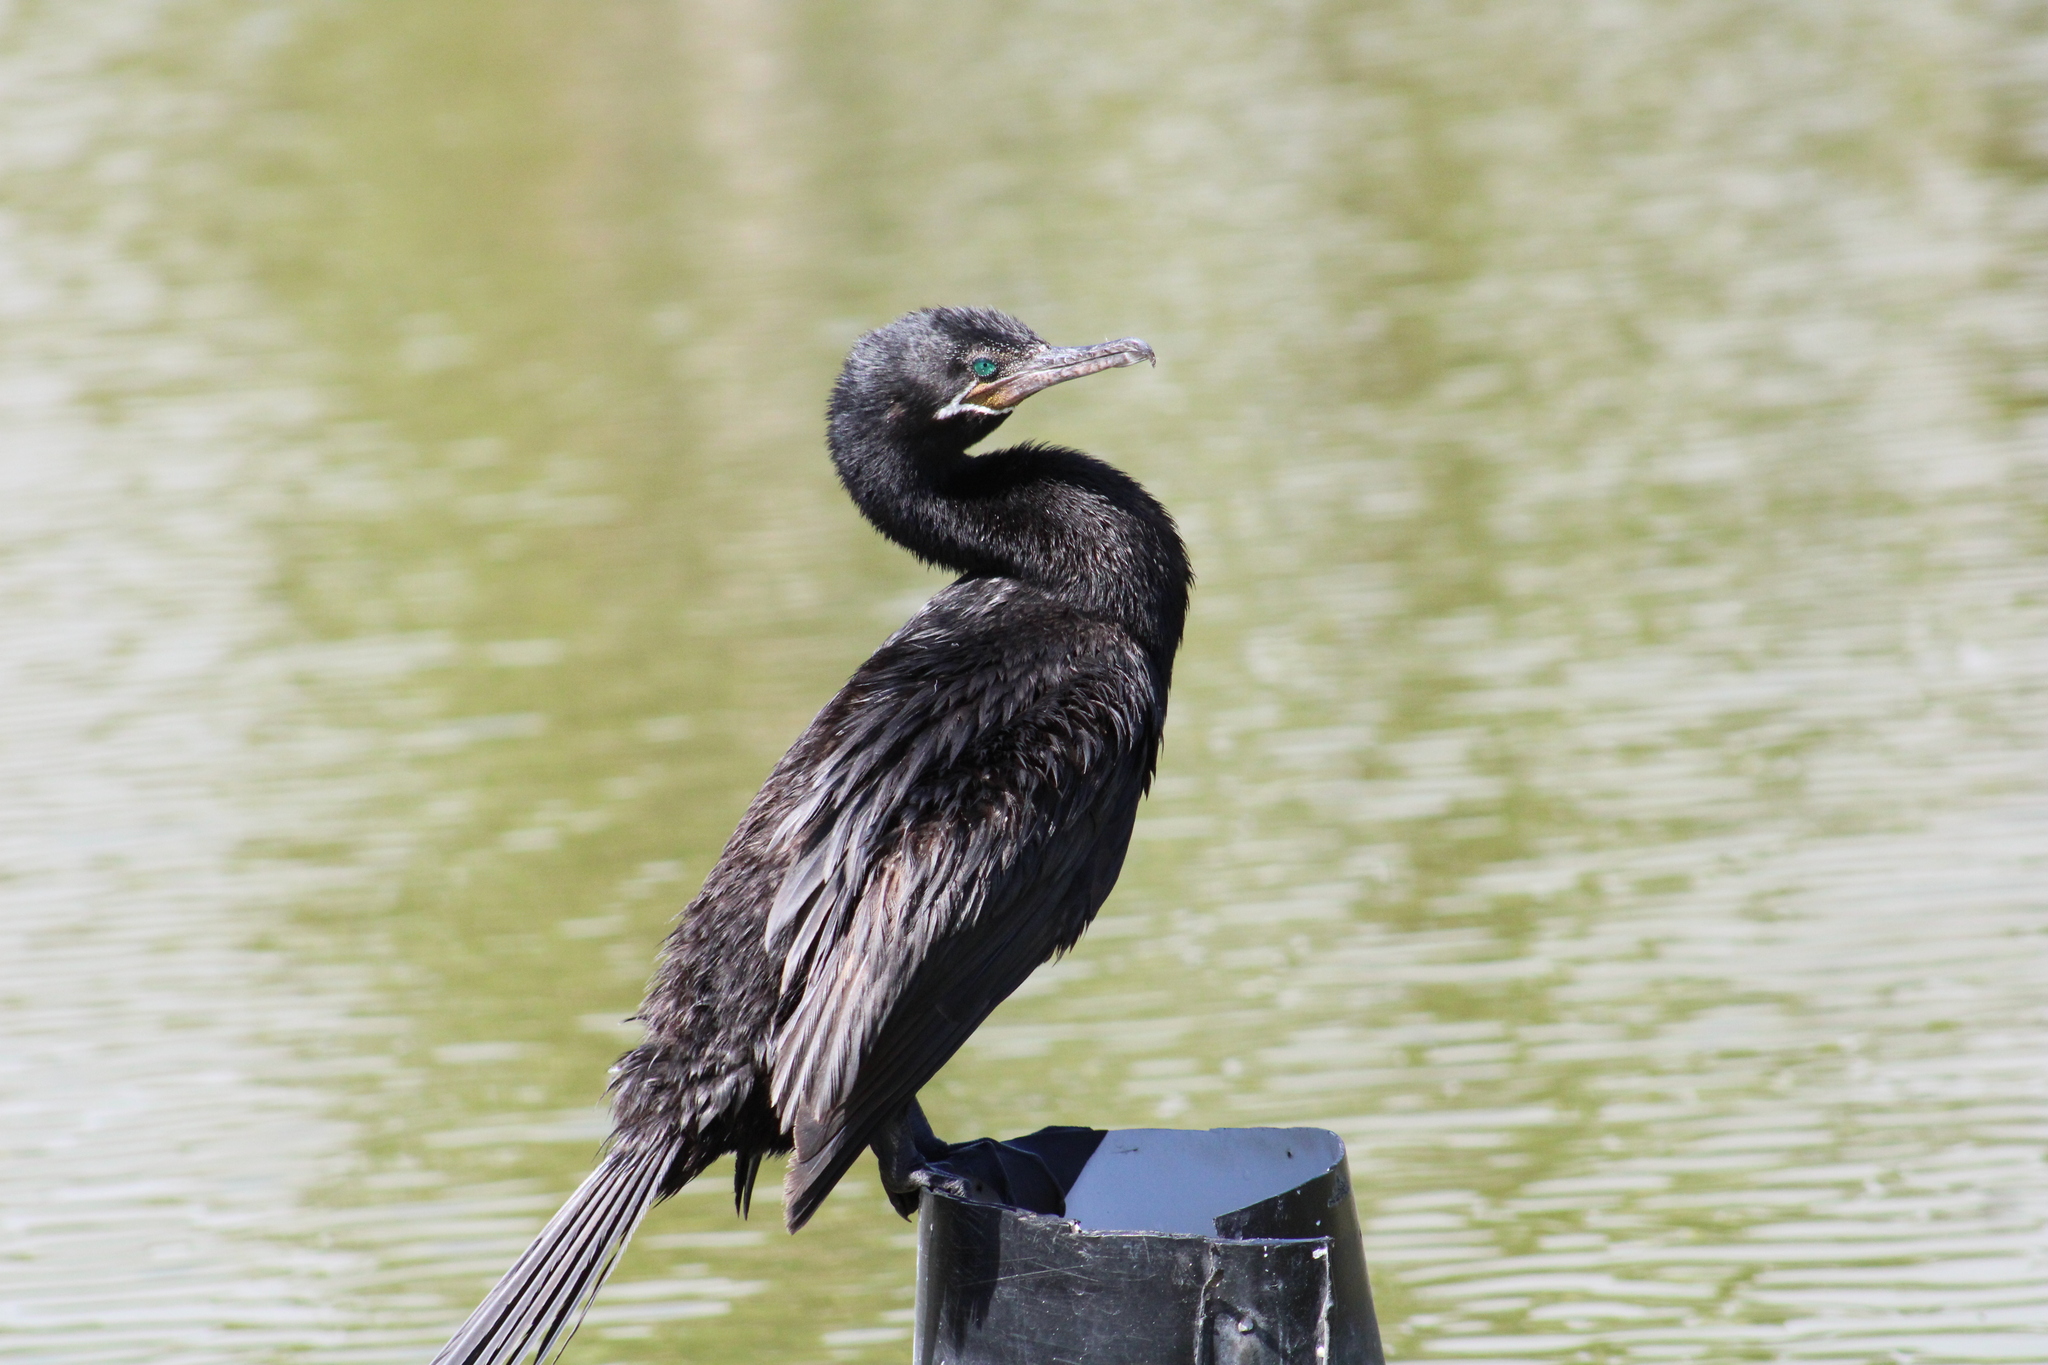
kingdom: Animalia
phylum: Chordata
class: Aves
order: Suliformes
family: Phalacrocoracidae
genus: Phalacrocorax
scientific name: Phalacrocorax brasilianus
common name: Neotropic cormorant
